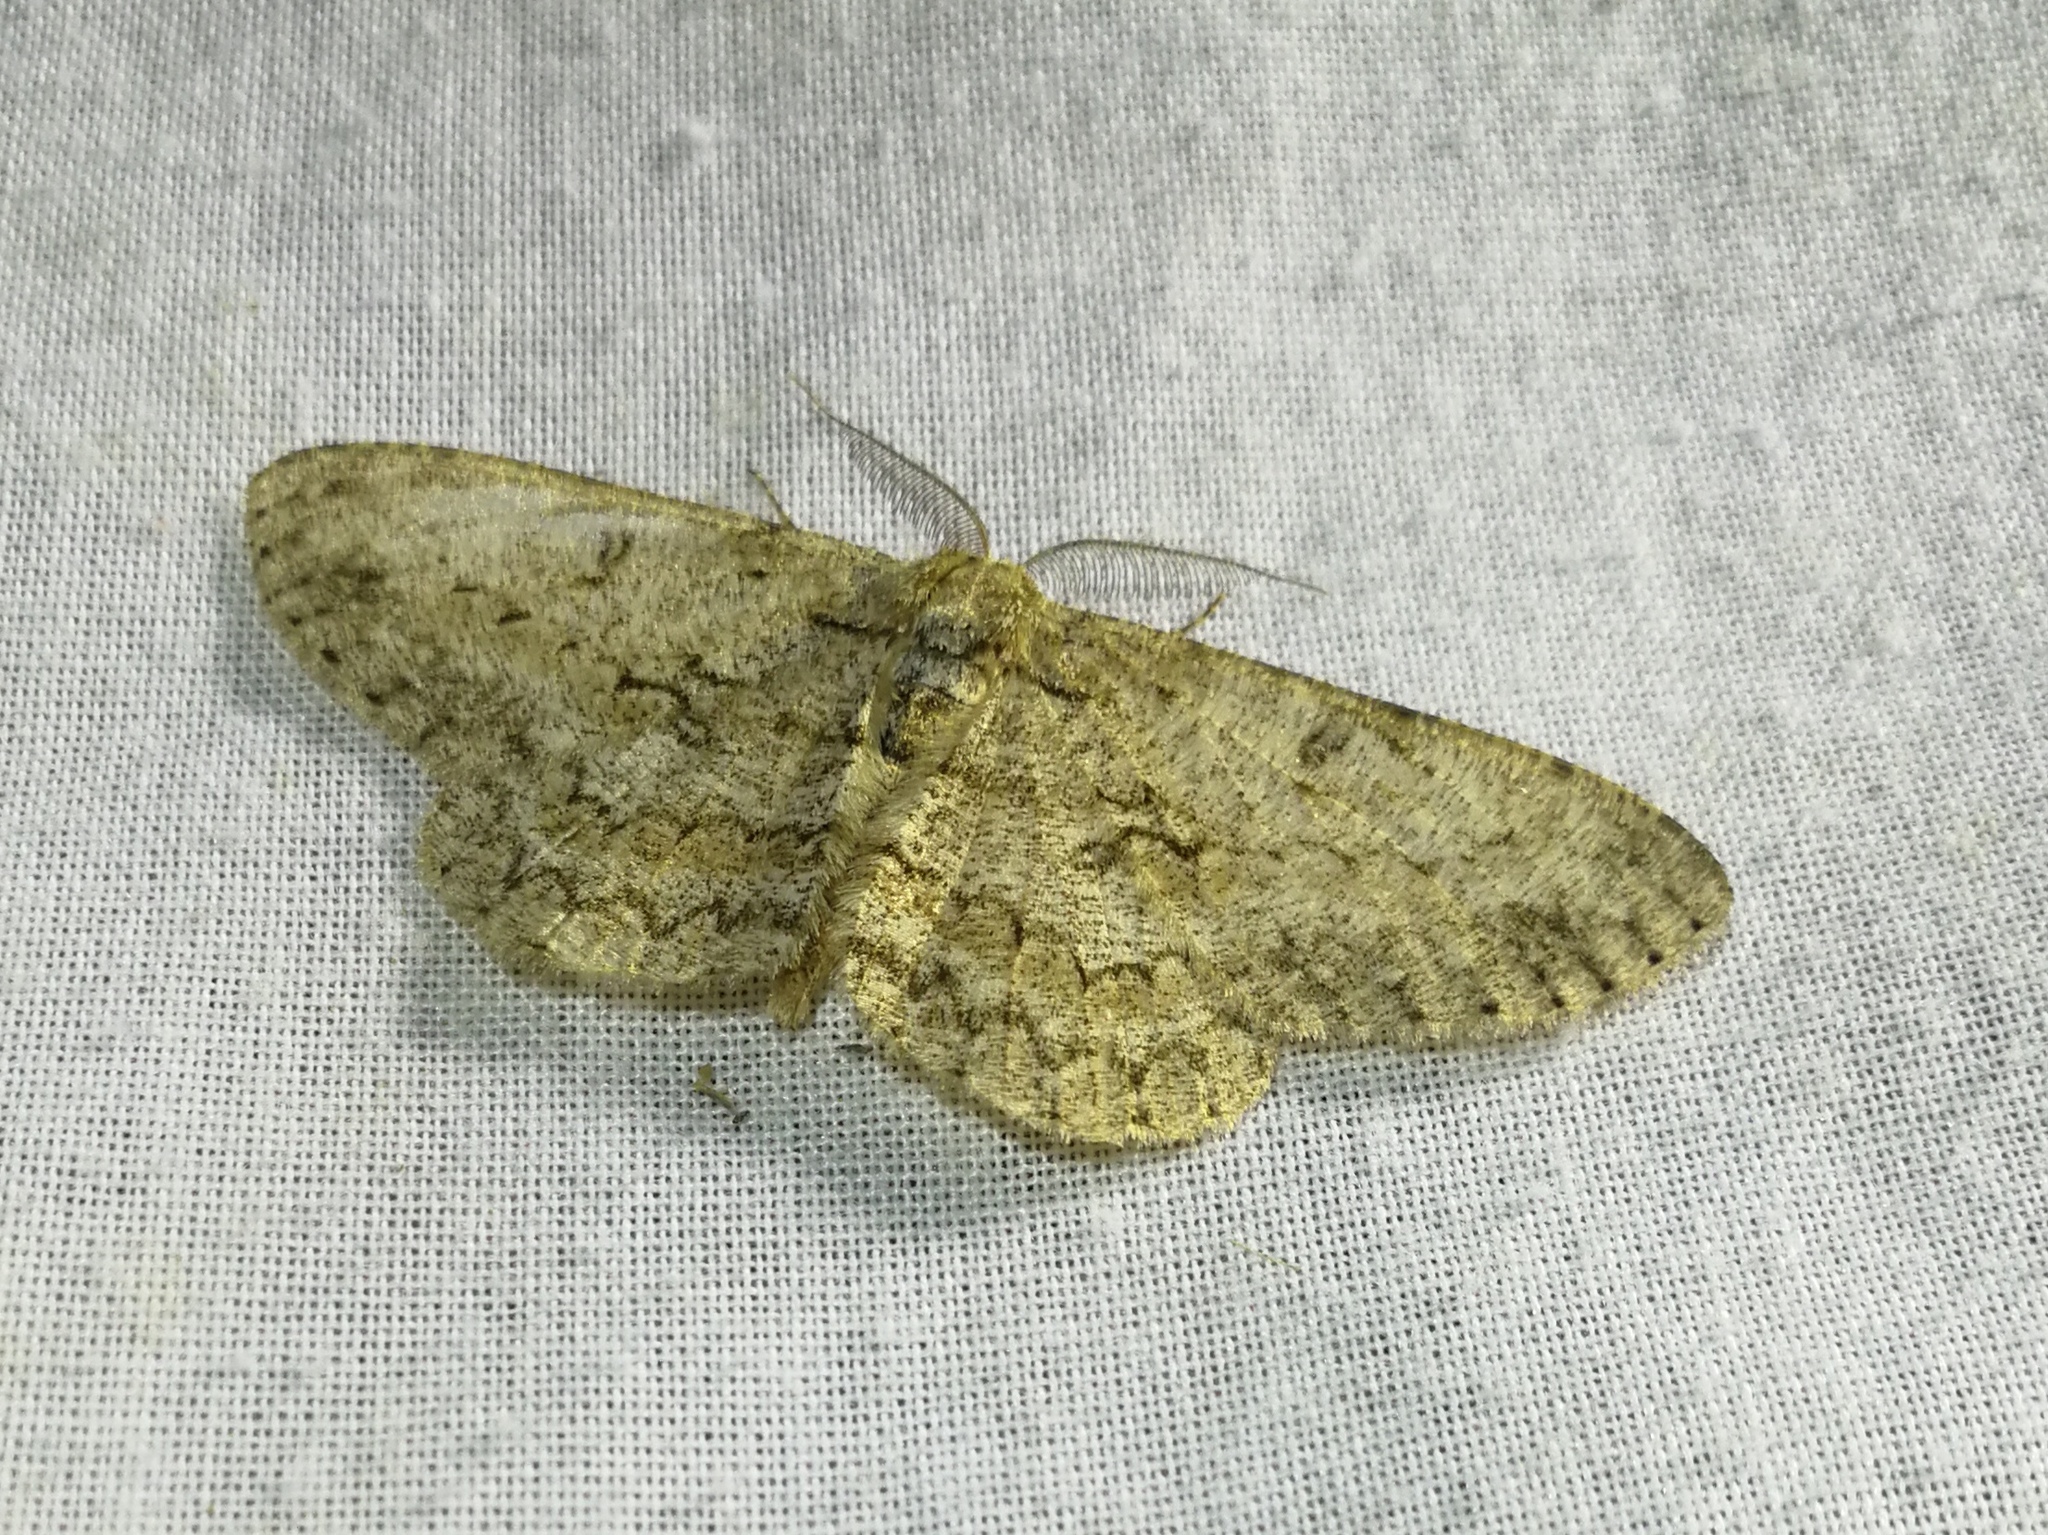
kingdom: Animalia
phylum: Arthropoda
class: Insecta
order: Lepidoptera
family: Geometridae
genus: Hypomecis
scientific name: Hypomecis punctinalis
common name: Pale oak beauty
